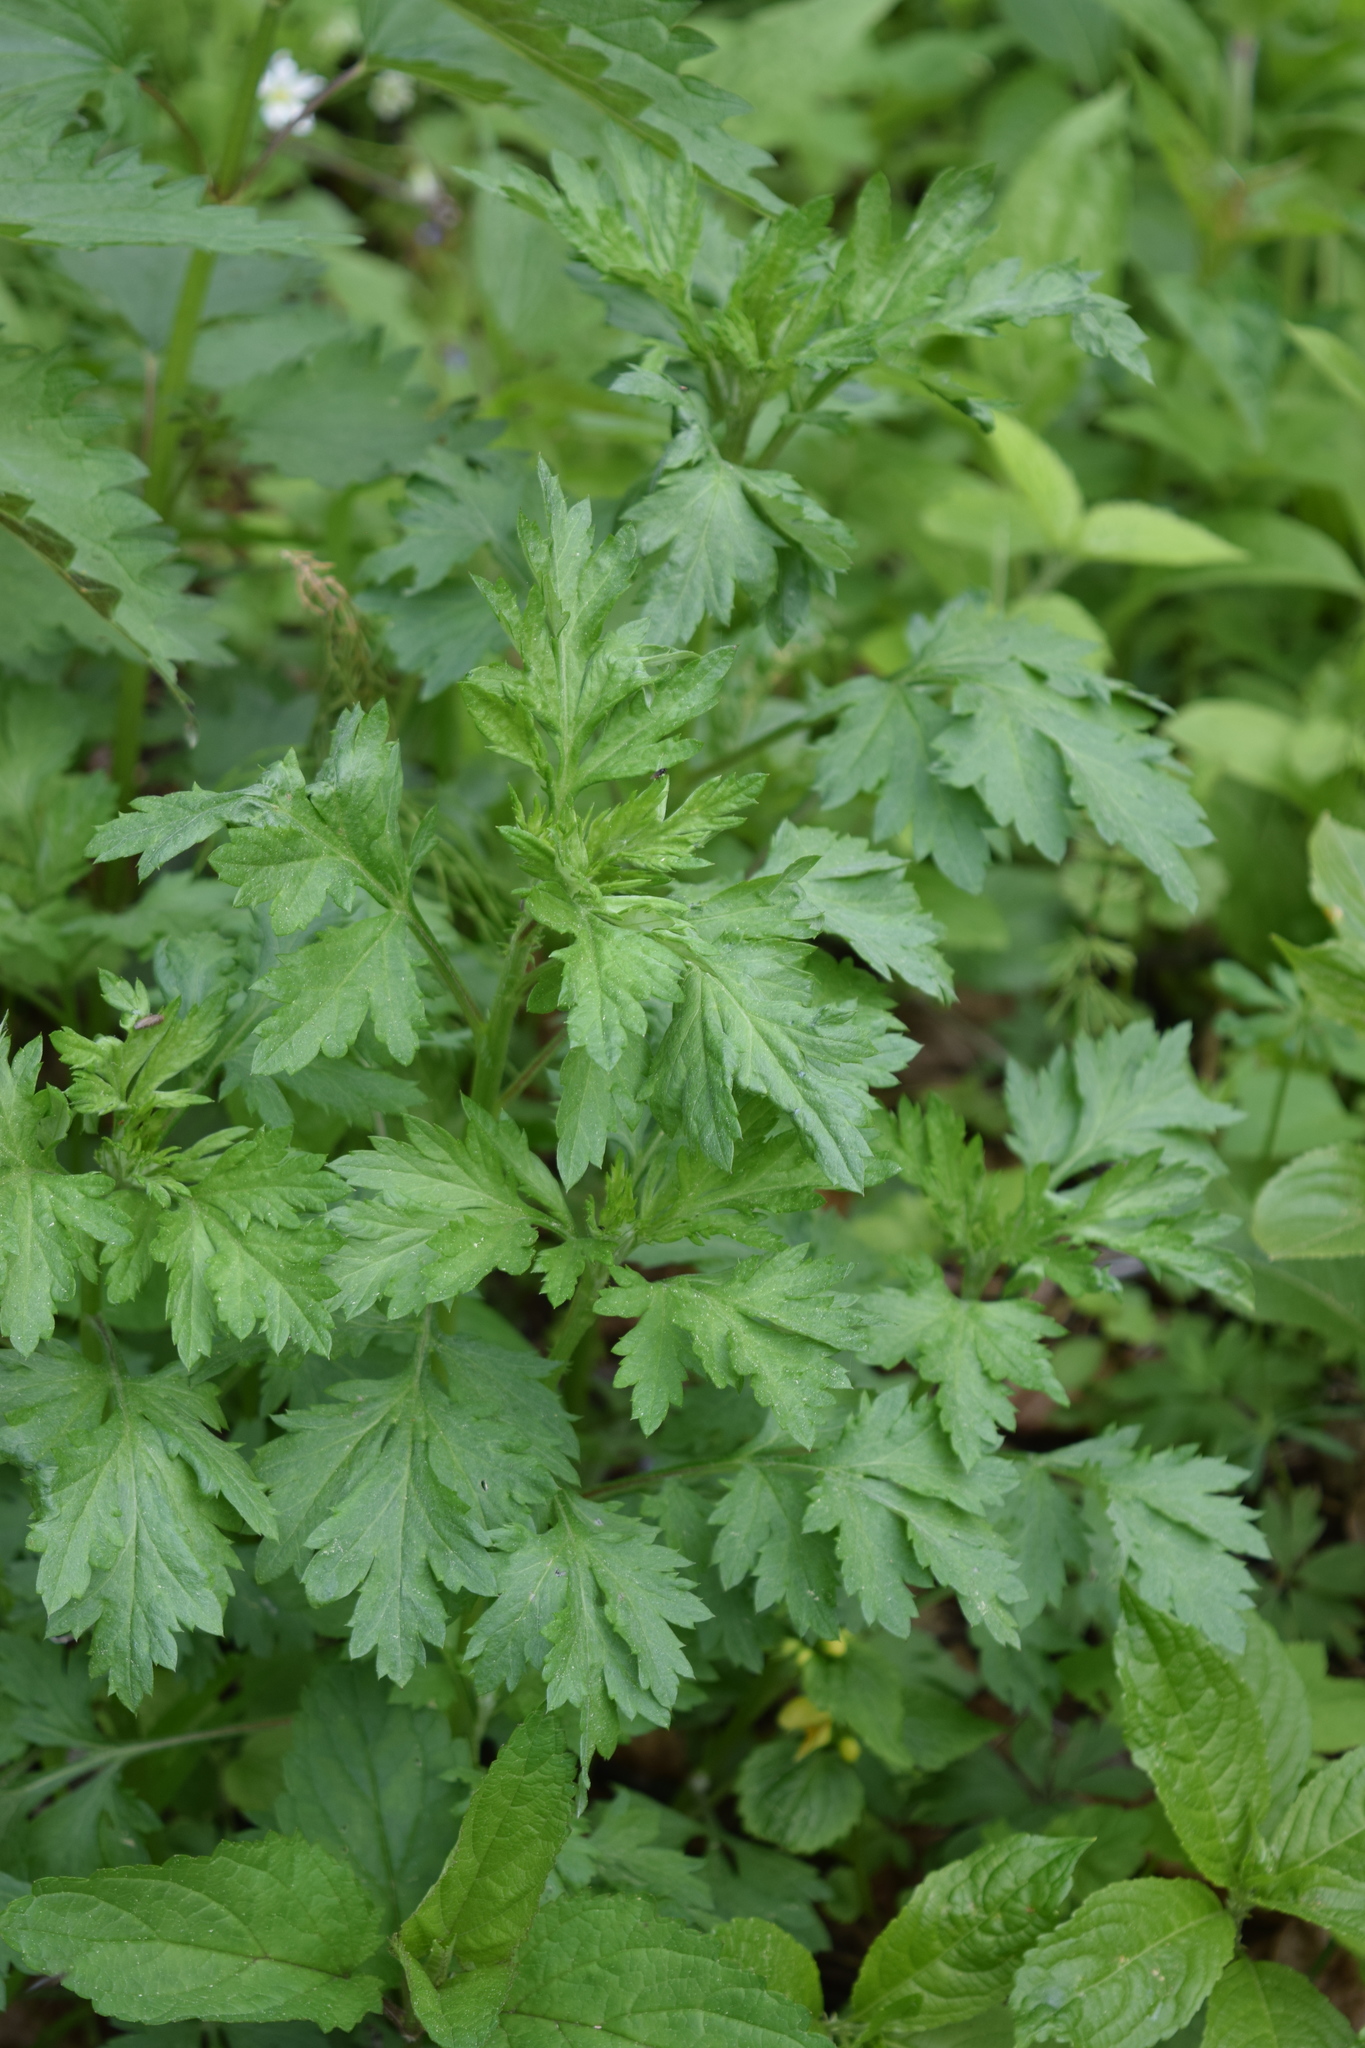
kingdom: Plantae
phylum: Tracheophyta
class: Magnoliopsida
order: Asterales
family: Asteraceae
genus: Artemisia
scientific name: Artemisia vulgaris
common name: Mugwort
